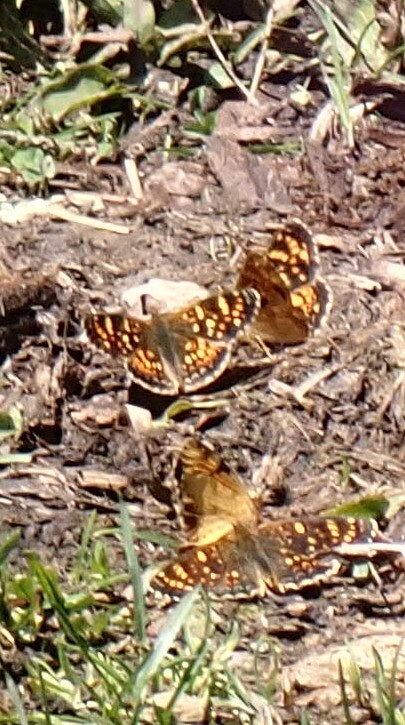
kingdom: Animalia
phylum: Arthropoda
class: Insecta
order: Lepidoptera
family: Nymphalidae
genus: Phyciodes
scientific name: Phyciodes tharos
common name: Pearl crescent
